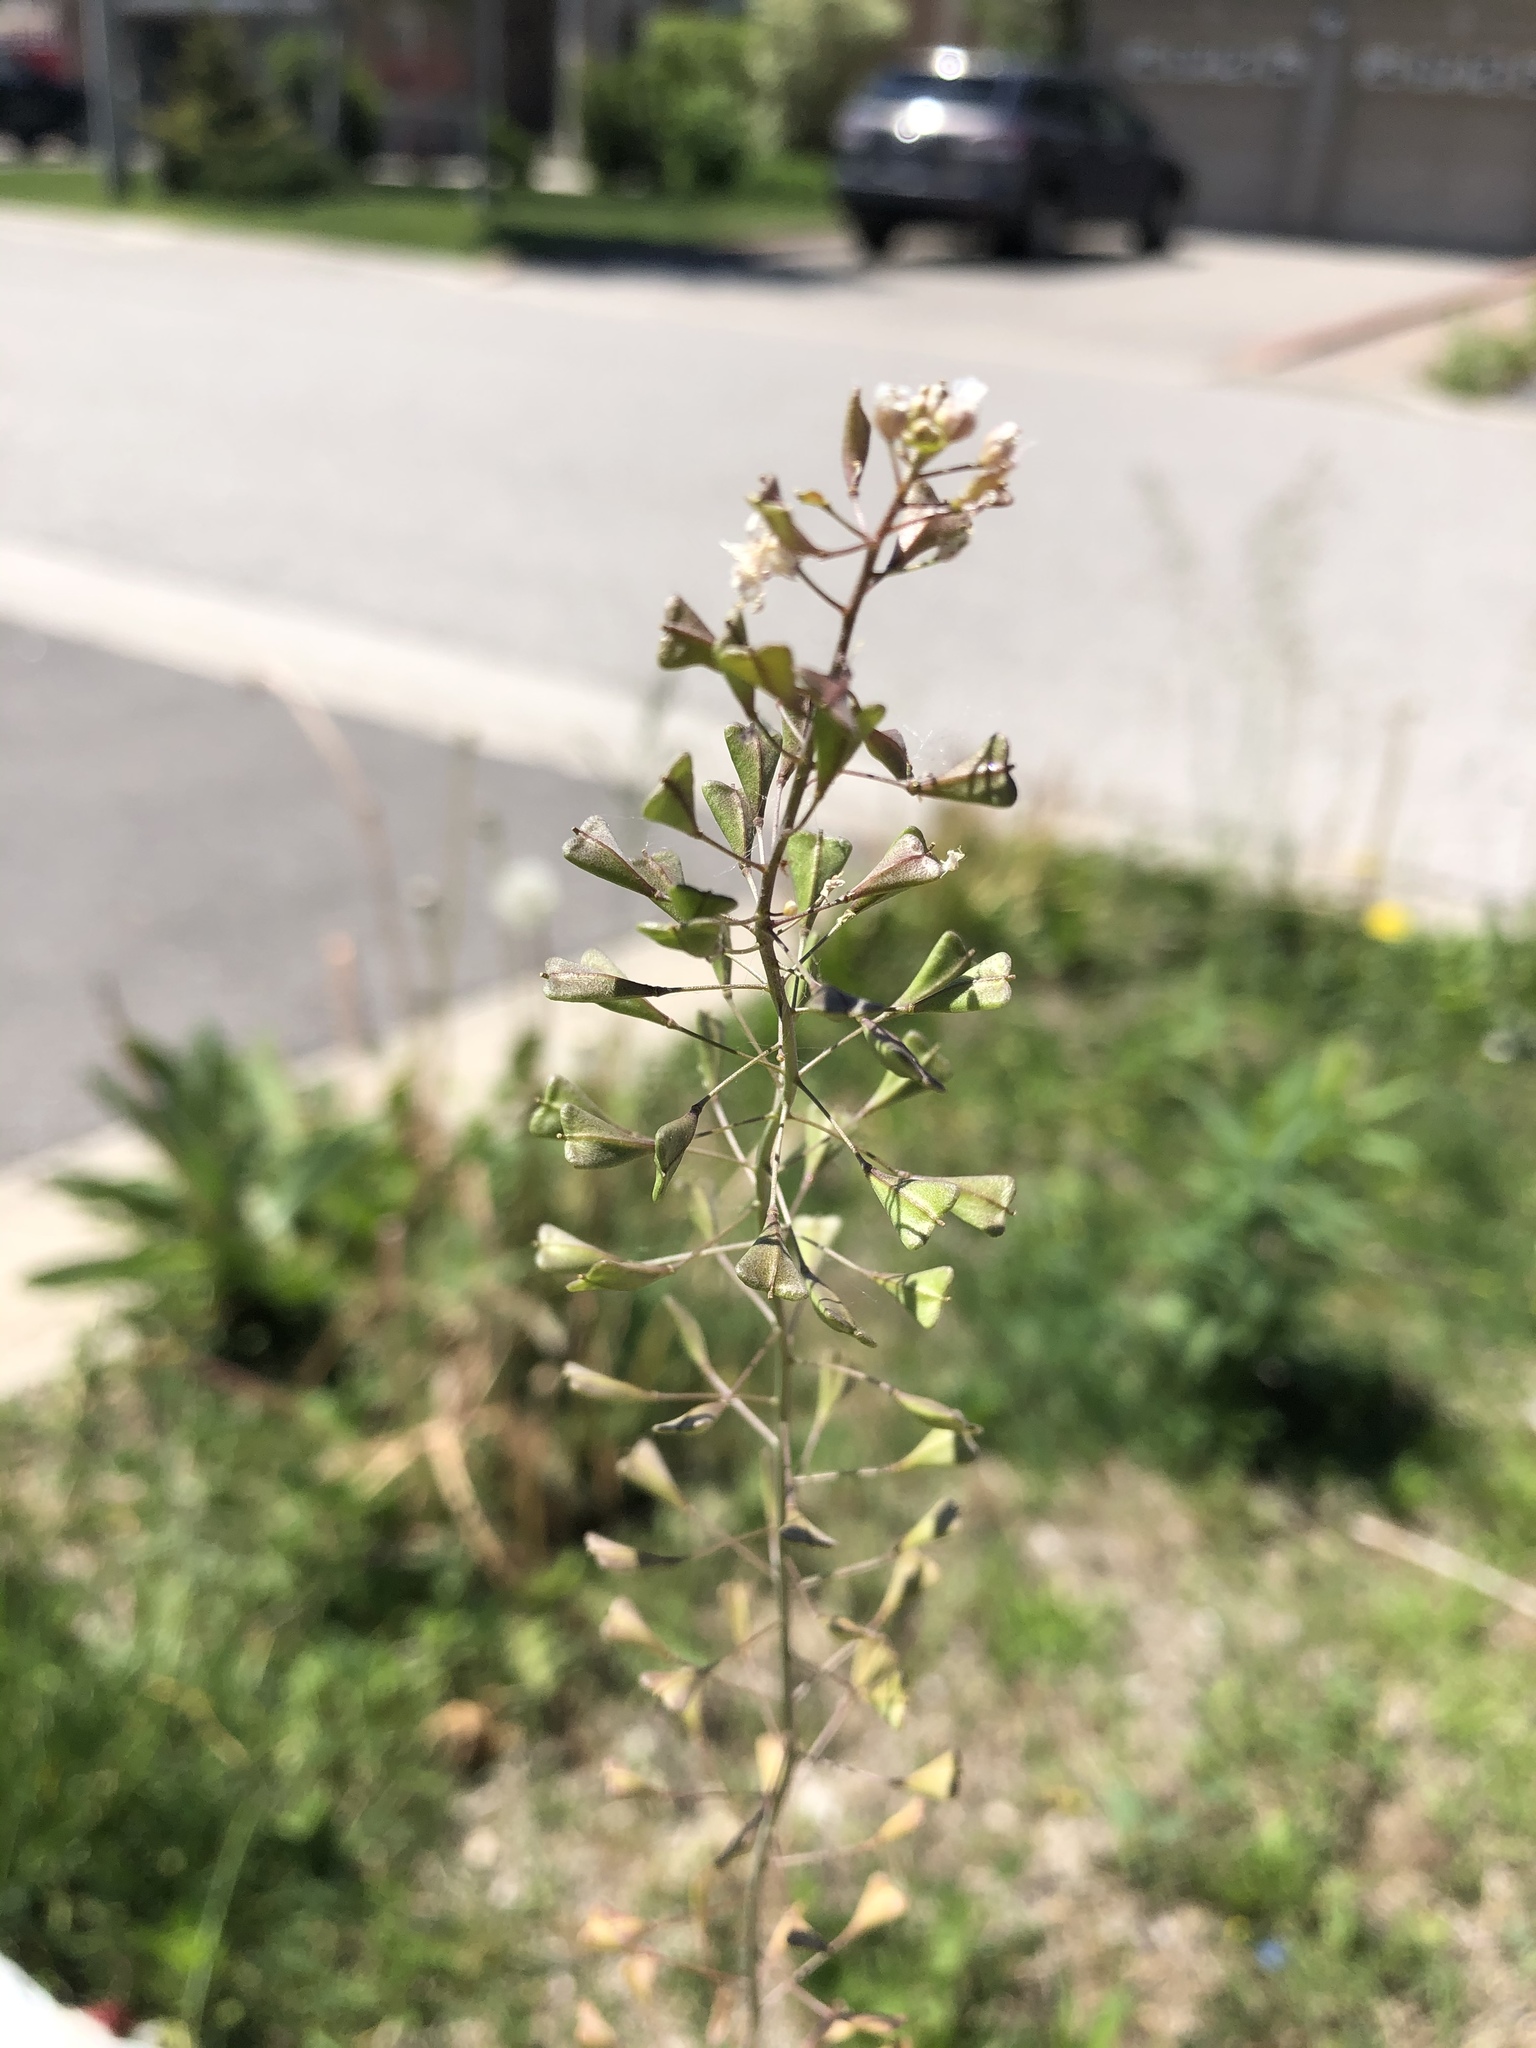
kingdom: Plantae
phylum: Tracheophyta
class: Magnoliopsida
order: Brassicales
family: Brassicaceae
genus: Capsella
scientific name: Capsella bursa-pastoris
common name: Shepherd's purse
